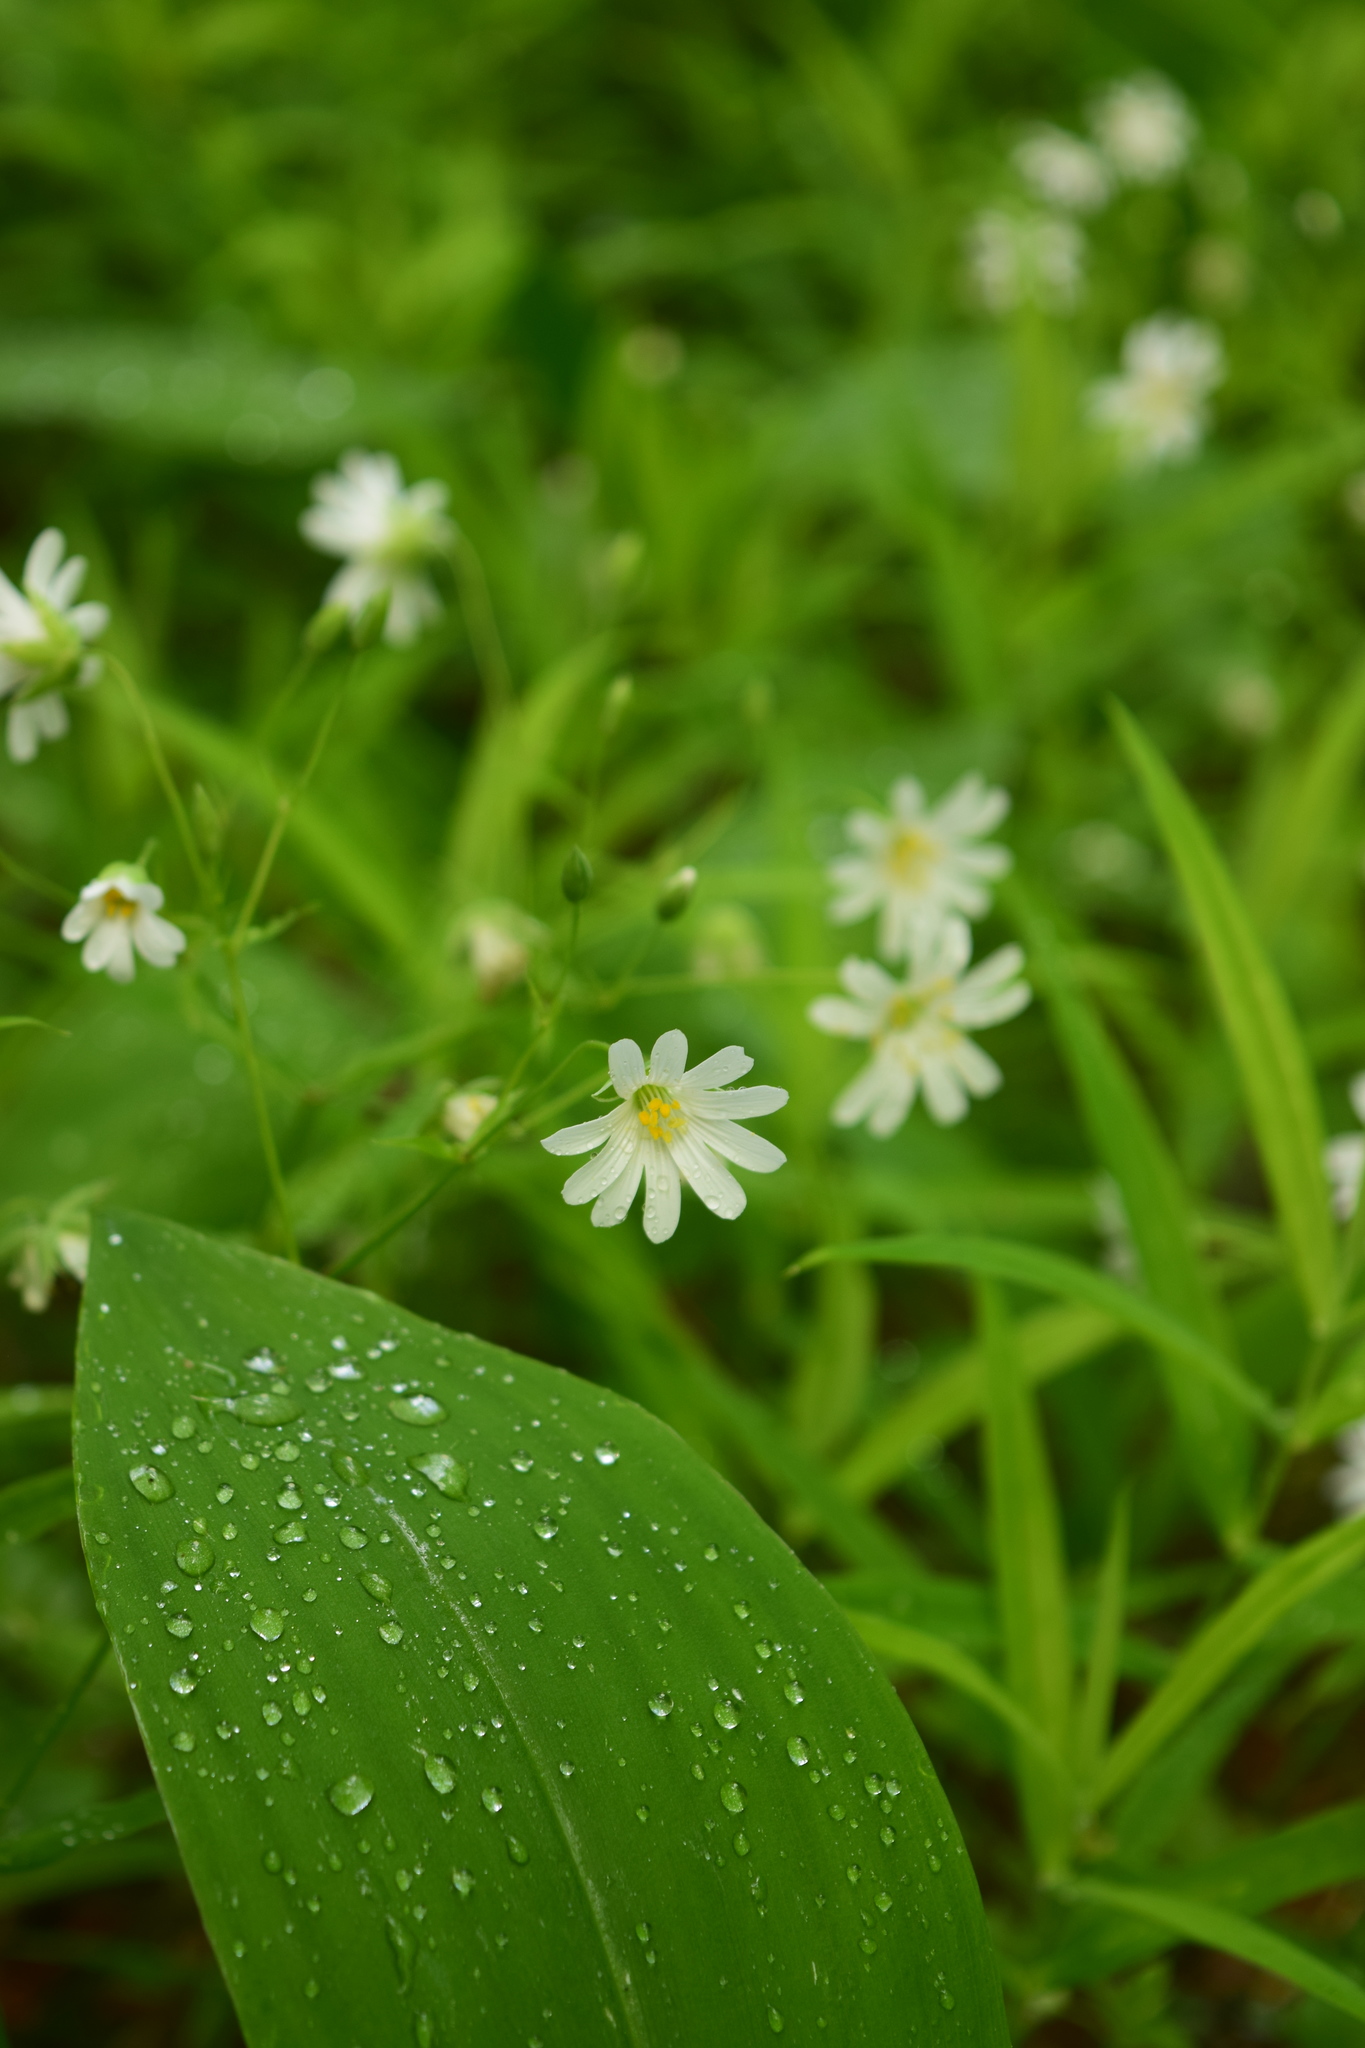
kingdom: Plantae
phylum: Tracheophyta
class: Magnoliopsida
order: Caryophyllales
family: Caryophyllaceae
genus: Rabelera
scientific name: Rabelera holostea
